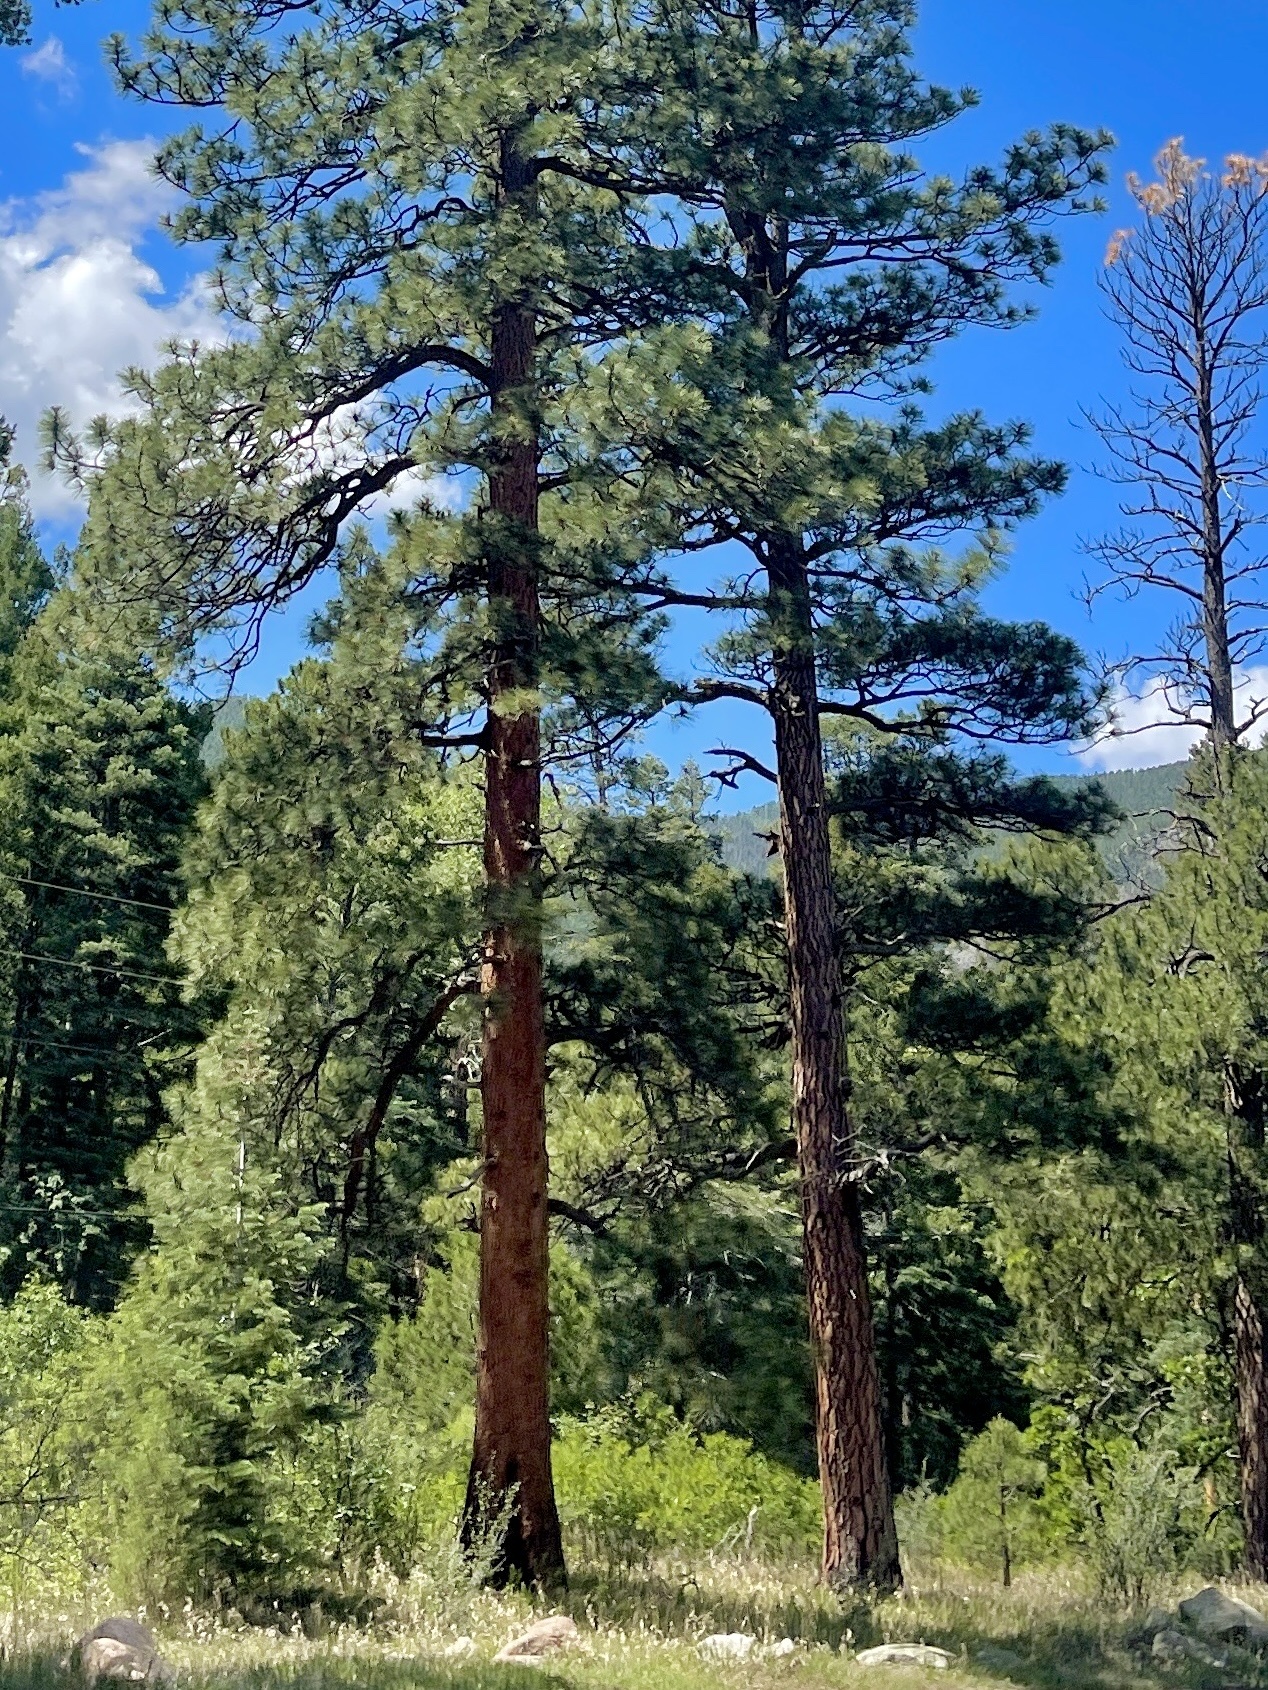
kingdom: Plantae
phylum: Tracheophyta
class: Pinopsida
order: Pinales
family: Pinaceae
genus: Pinus
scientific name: Pinus ponderosa
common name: Western yellow-pine
